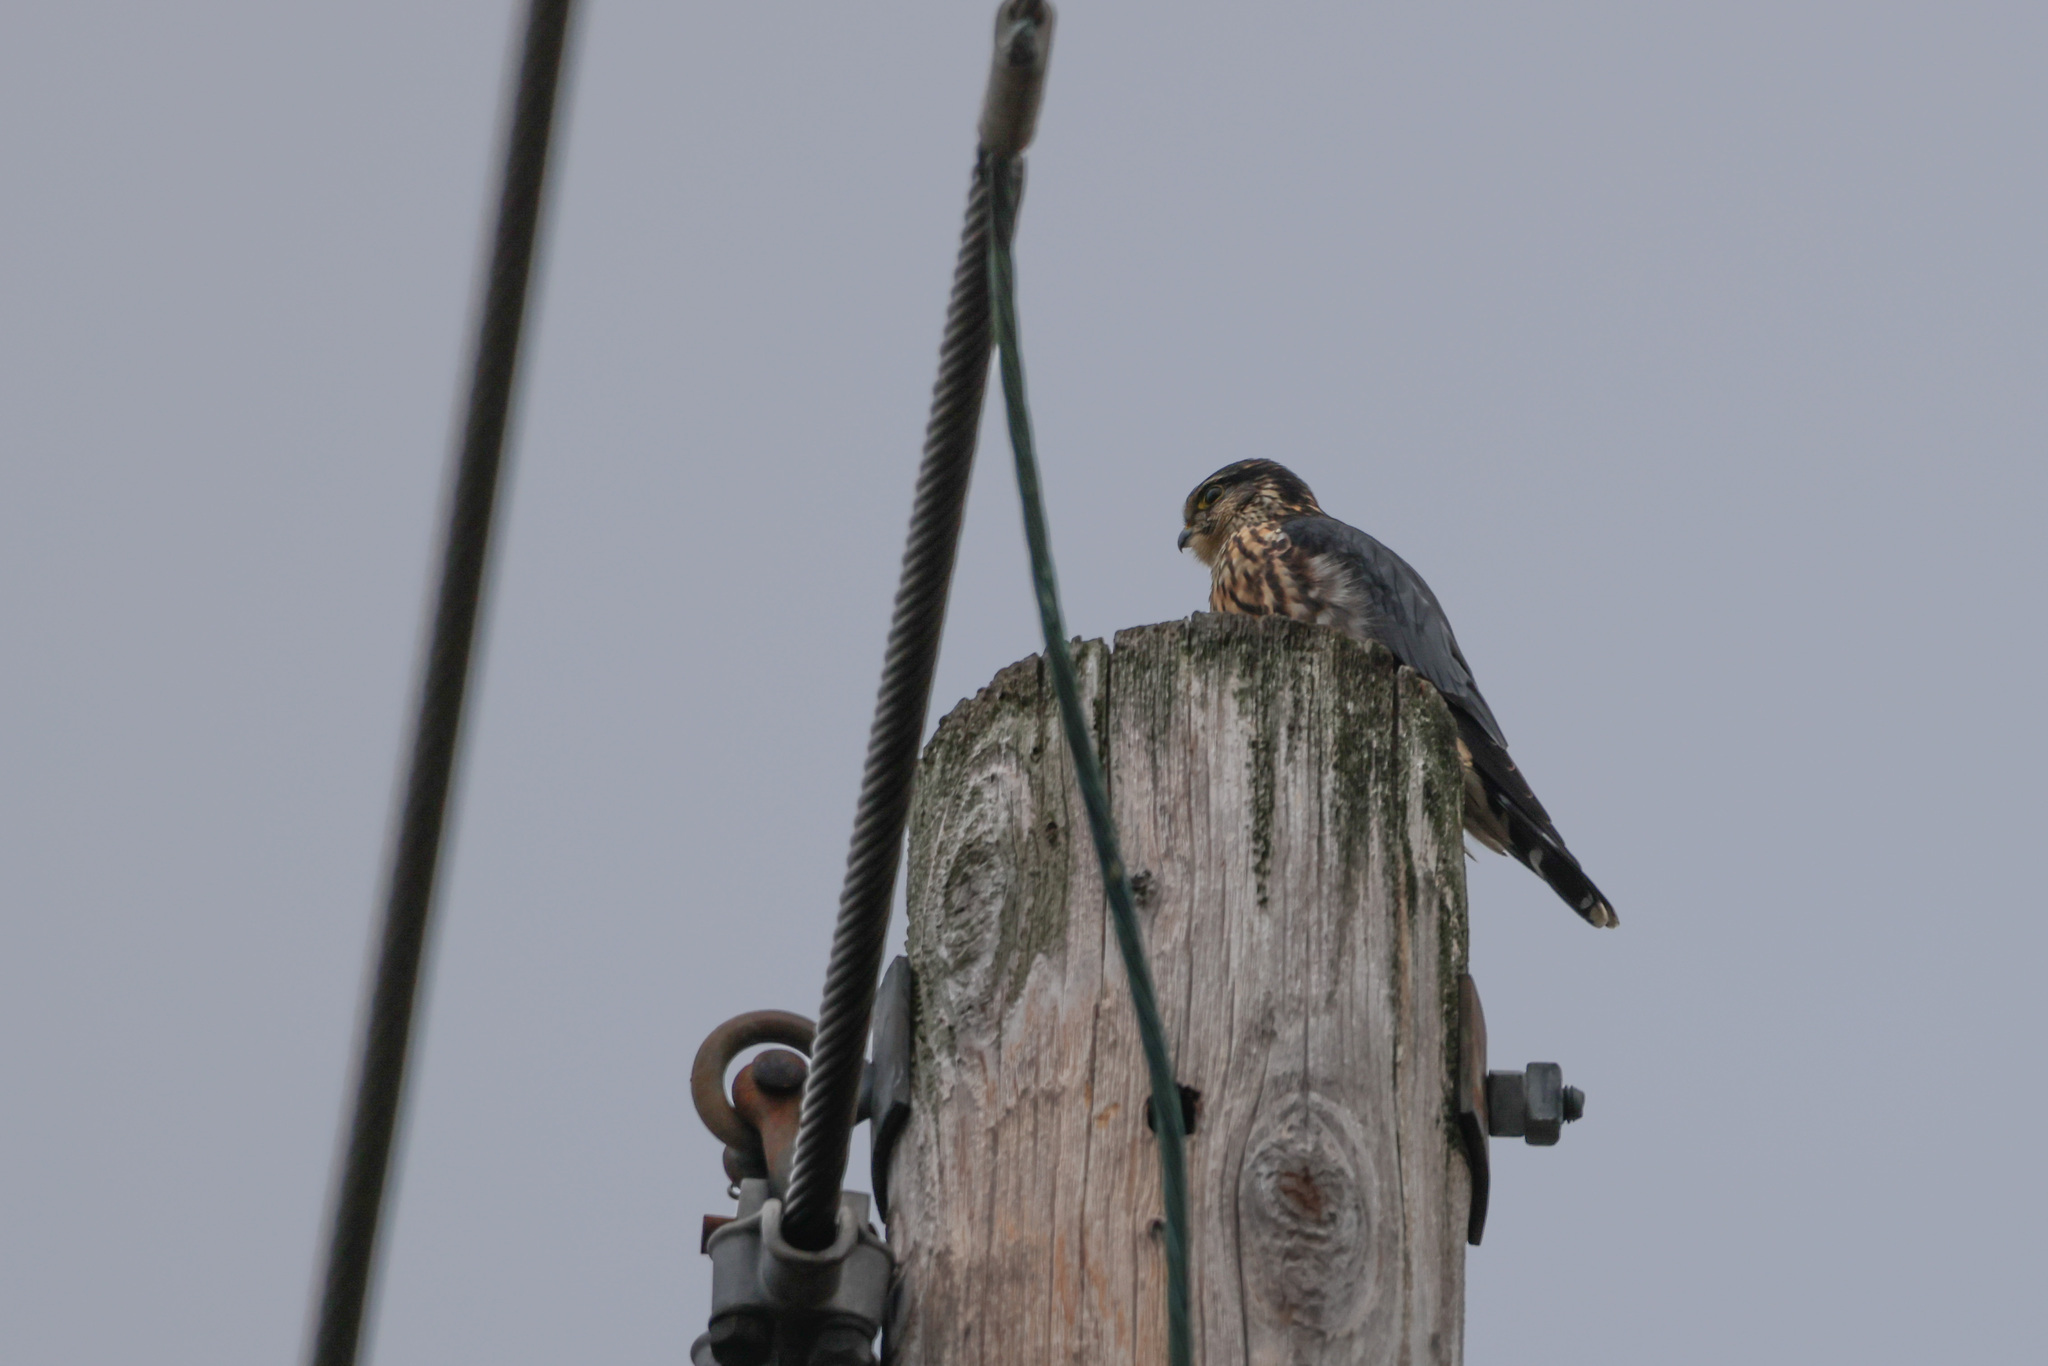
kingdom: Animalia
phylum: Chordata
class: Aves
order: Falconiformes
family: Falconidae
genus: Falco
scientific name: Falco columbarius
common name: Merlin
